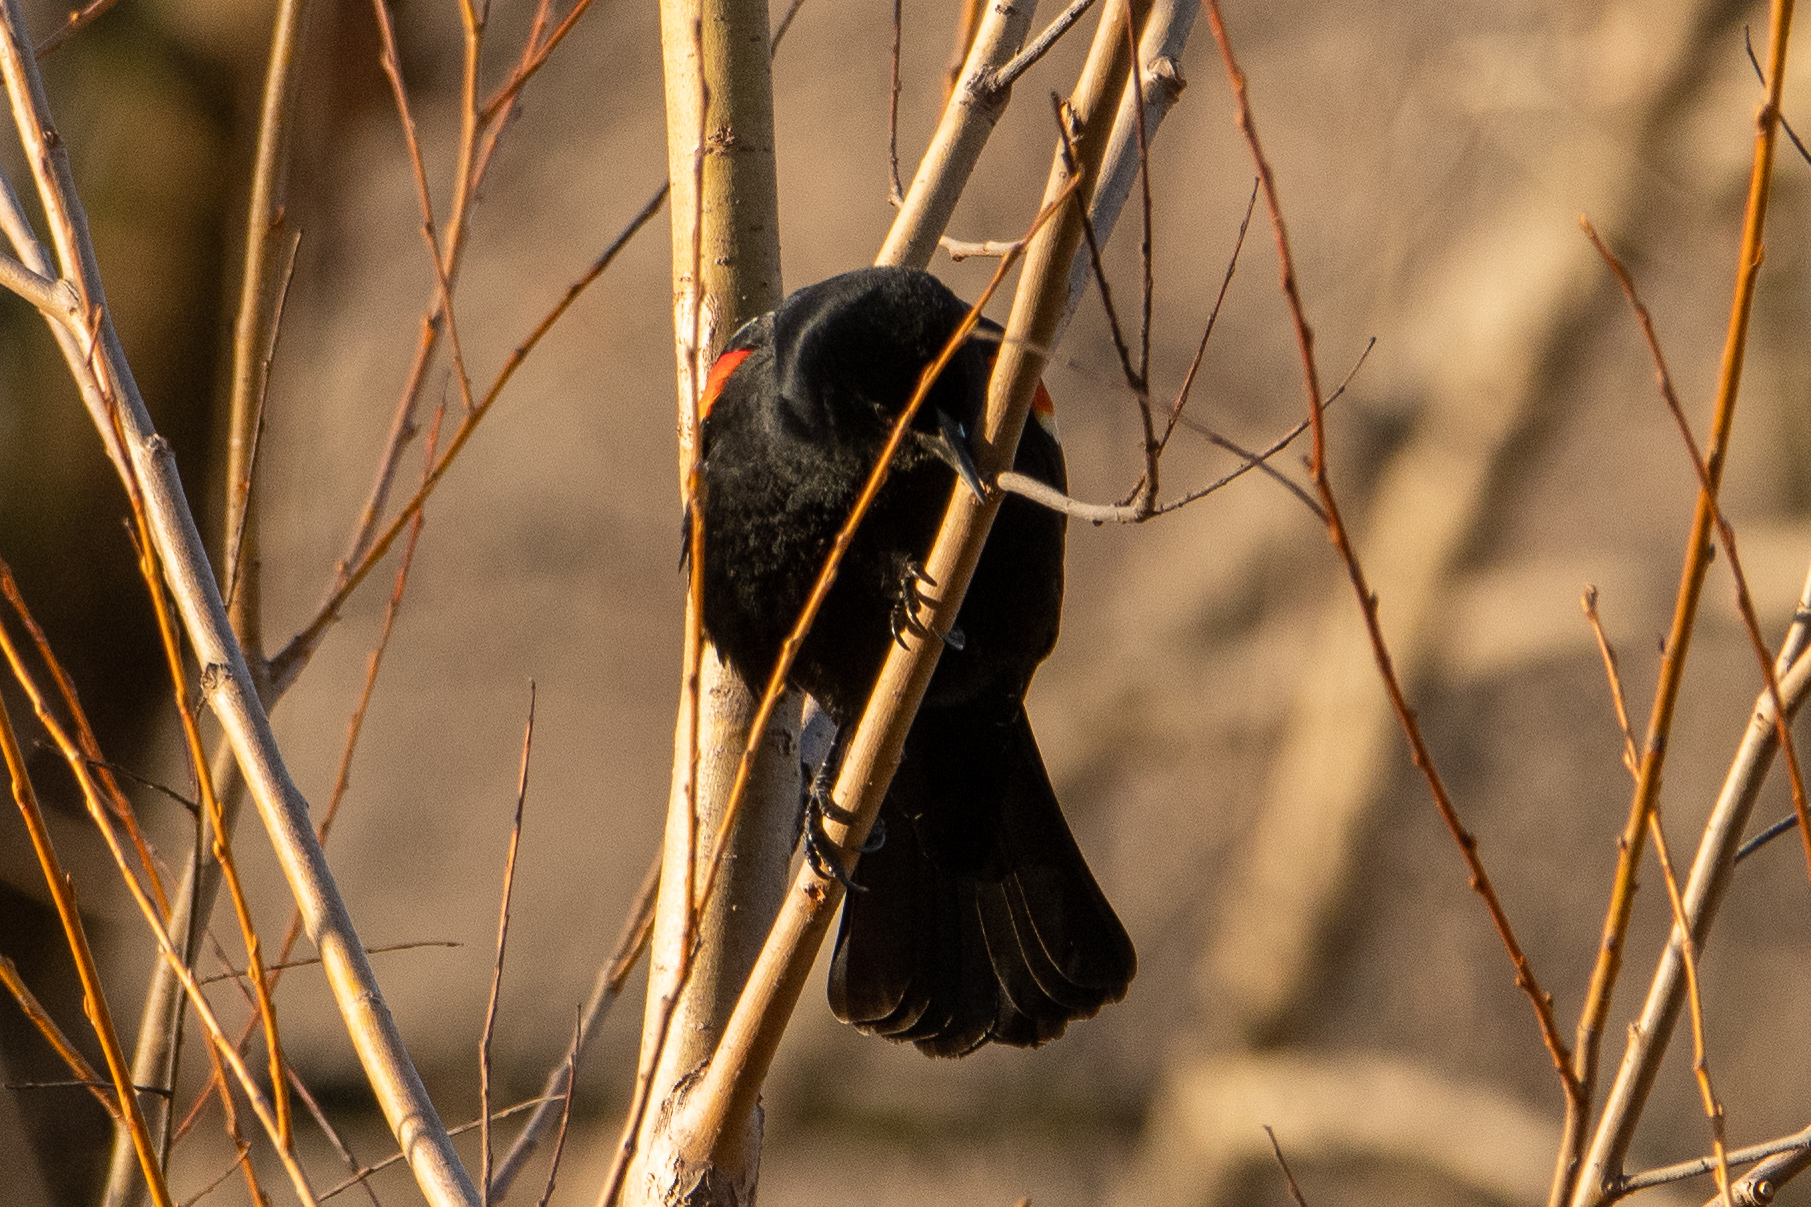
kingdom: Animalia
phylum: Chordata
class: Aves
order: Passeriformes
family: Icteridae
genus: Agelaius
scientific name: Agelaius phoeniceus
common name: Red-winged blackbird
